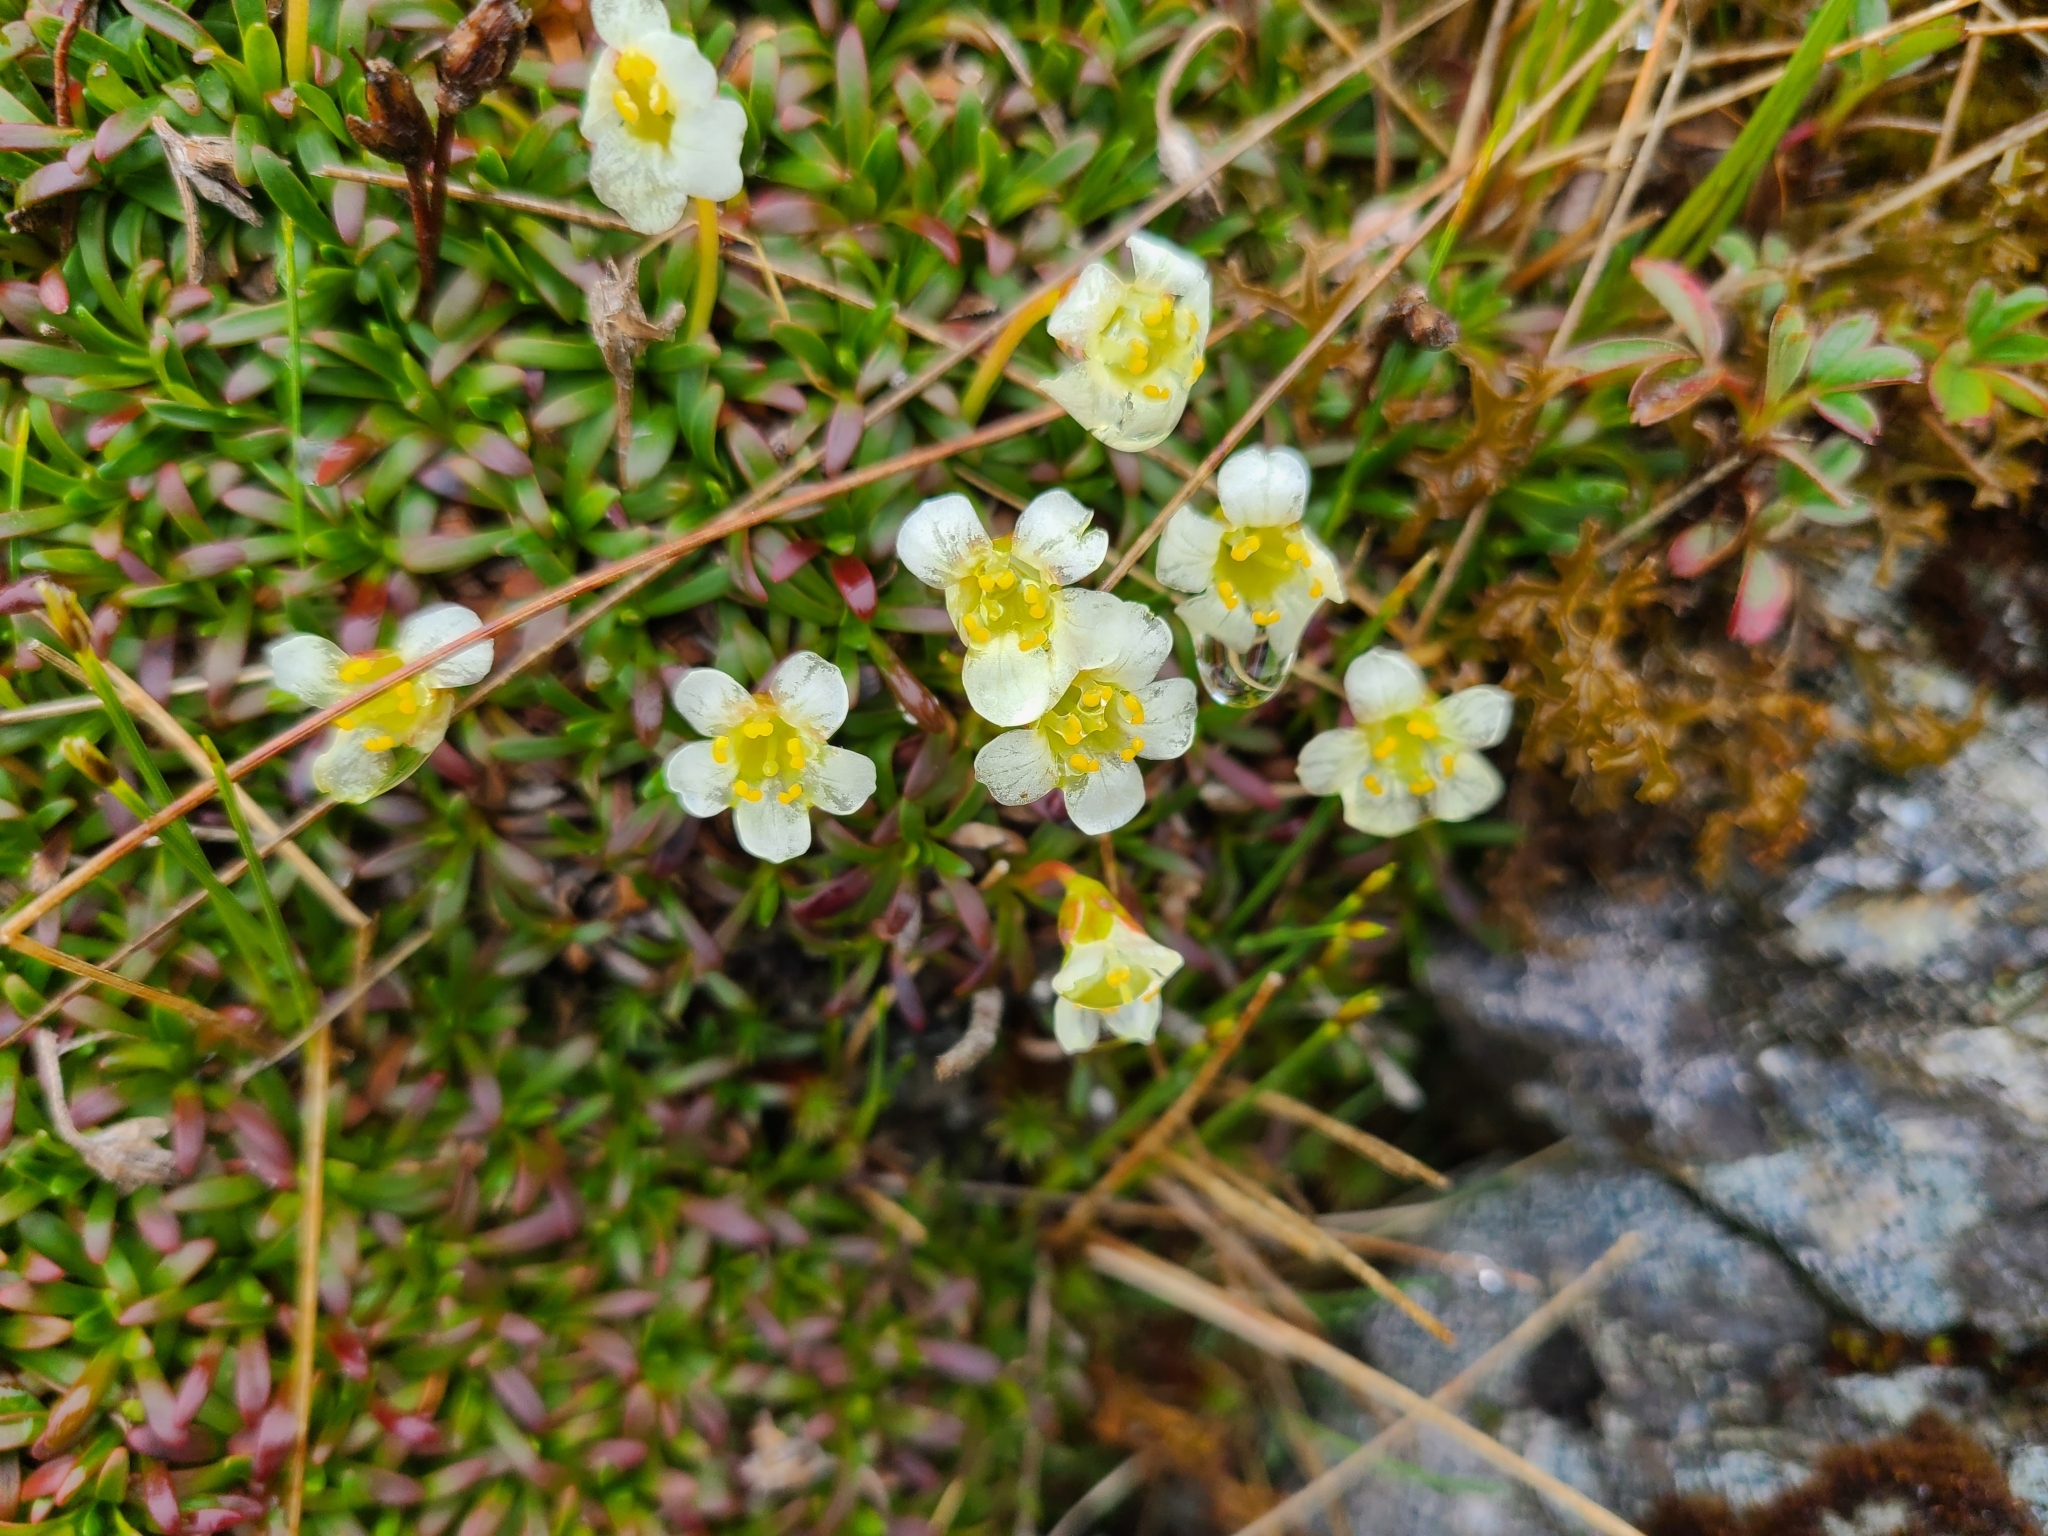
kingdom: Plantae
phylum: Tracheophyta
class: Magnoliopsida
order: Ericales
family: Diapensiaceae
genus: Diapensia
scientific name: Diapensia lapponica
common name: Diapensia
